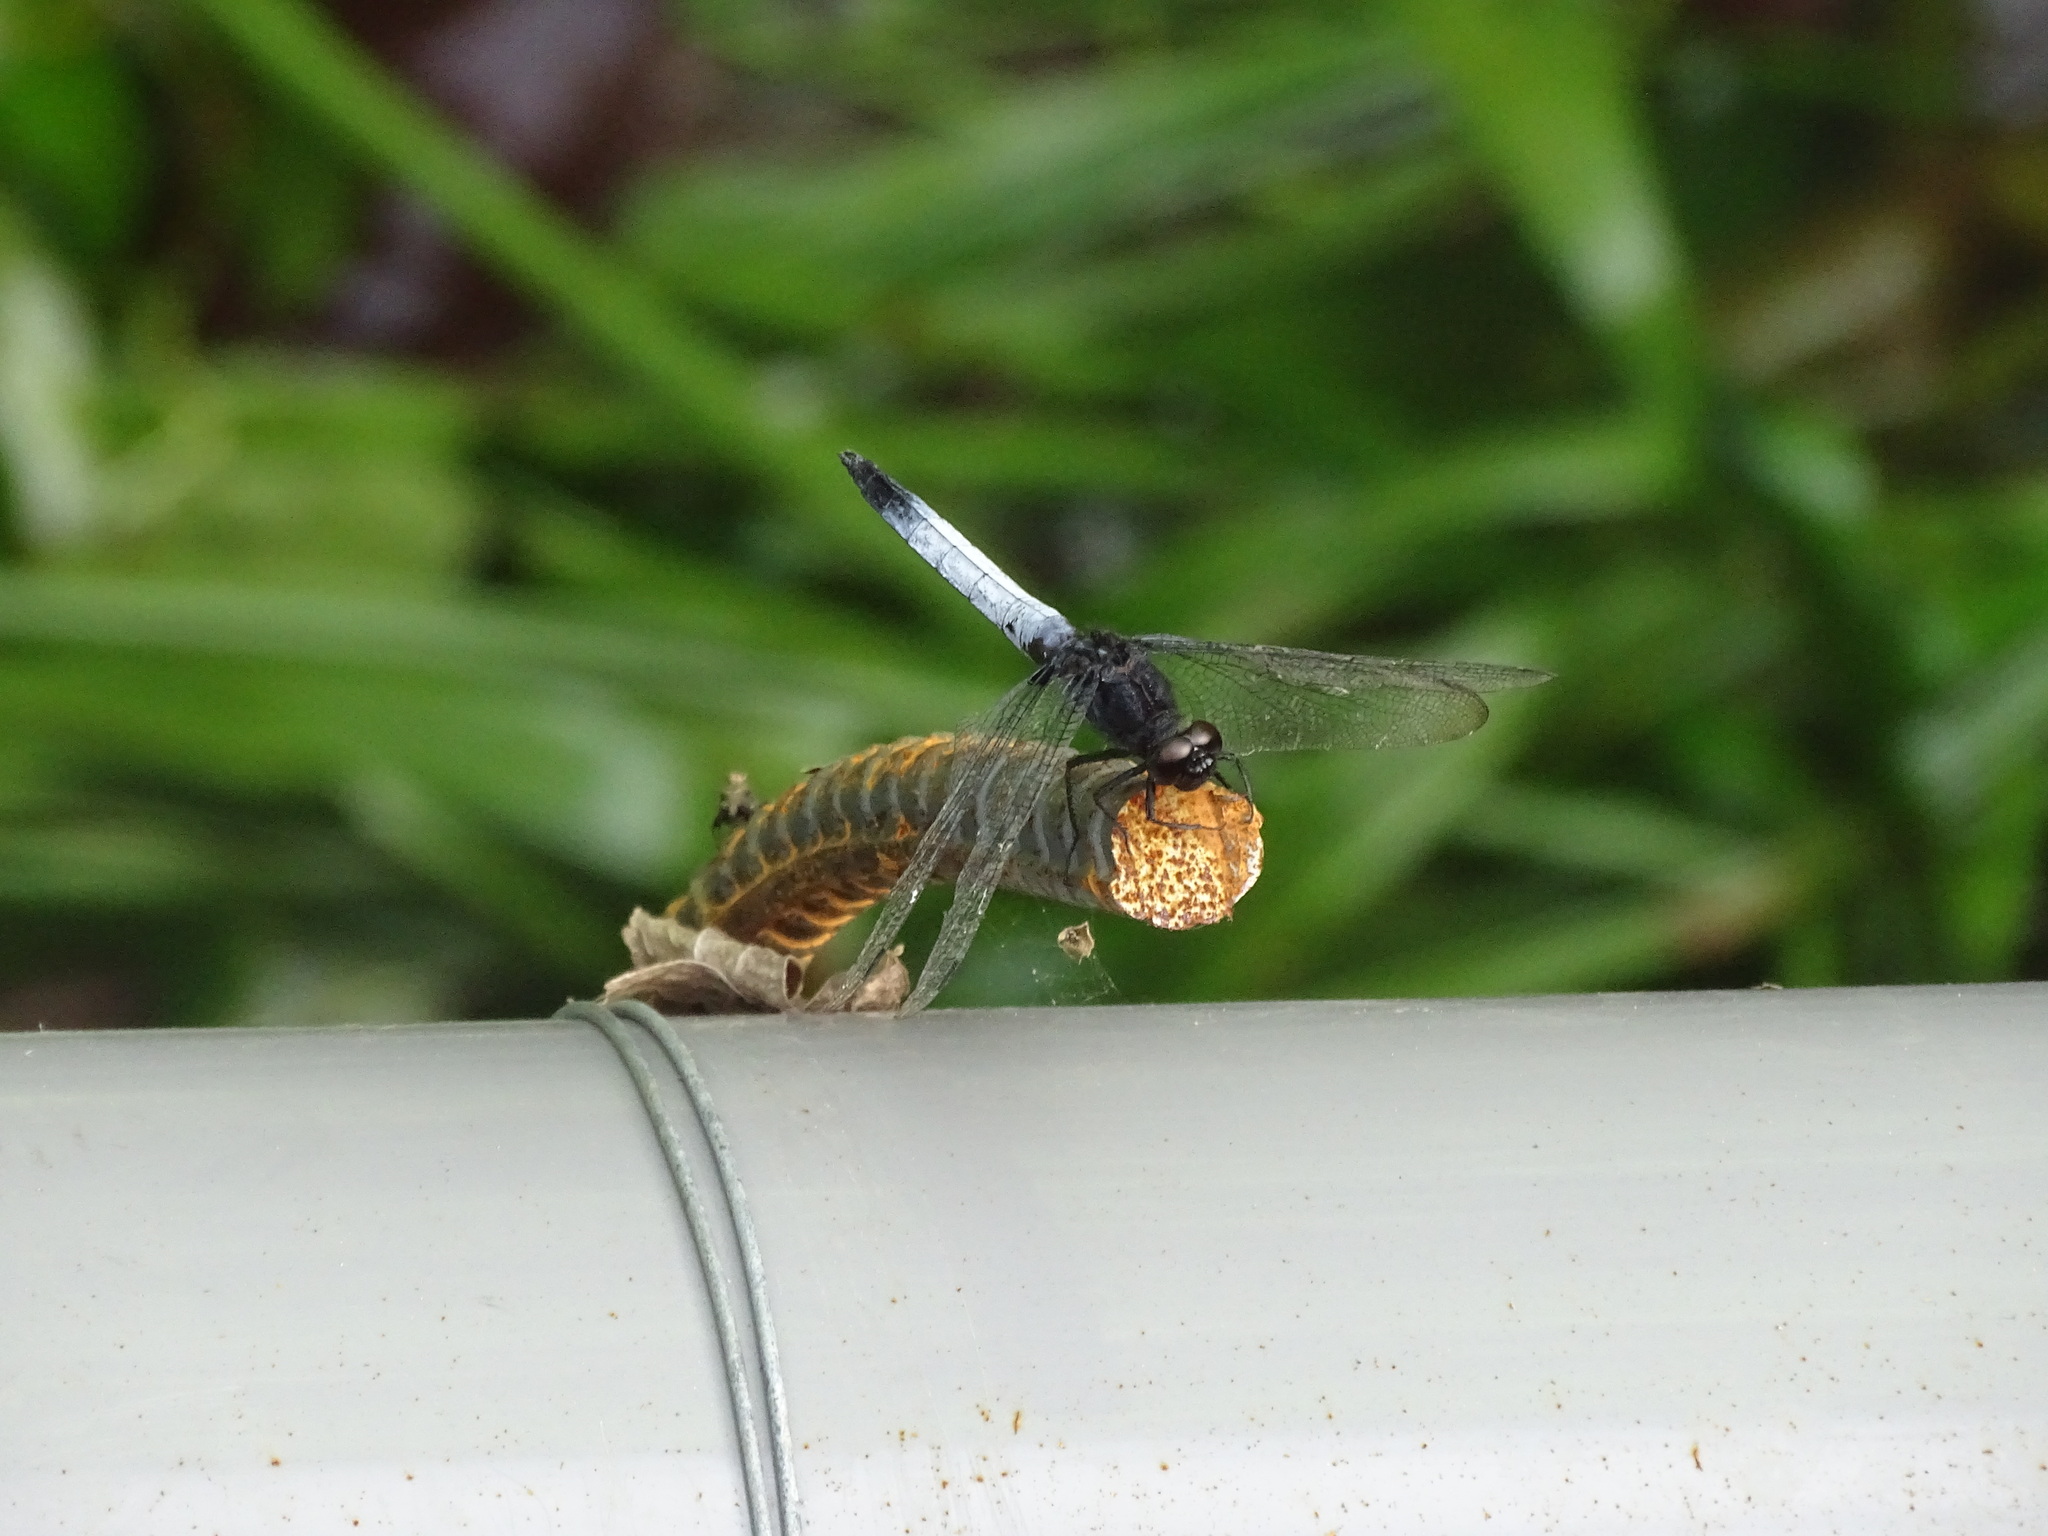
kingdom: Animalia
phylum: Arthropoda
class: Insecta
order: Odonata
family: Libellulidae
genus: Orthetrum
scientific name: Orthetrum triangulare
